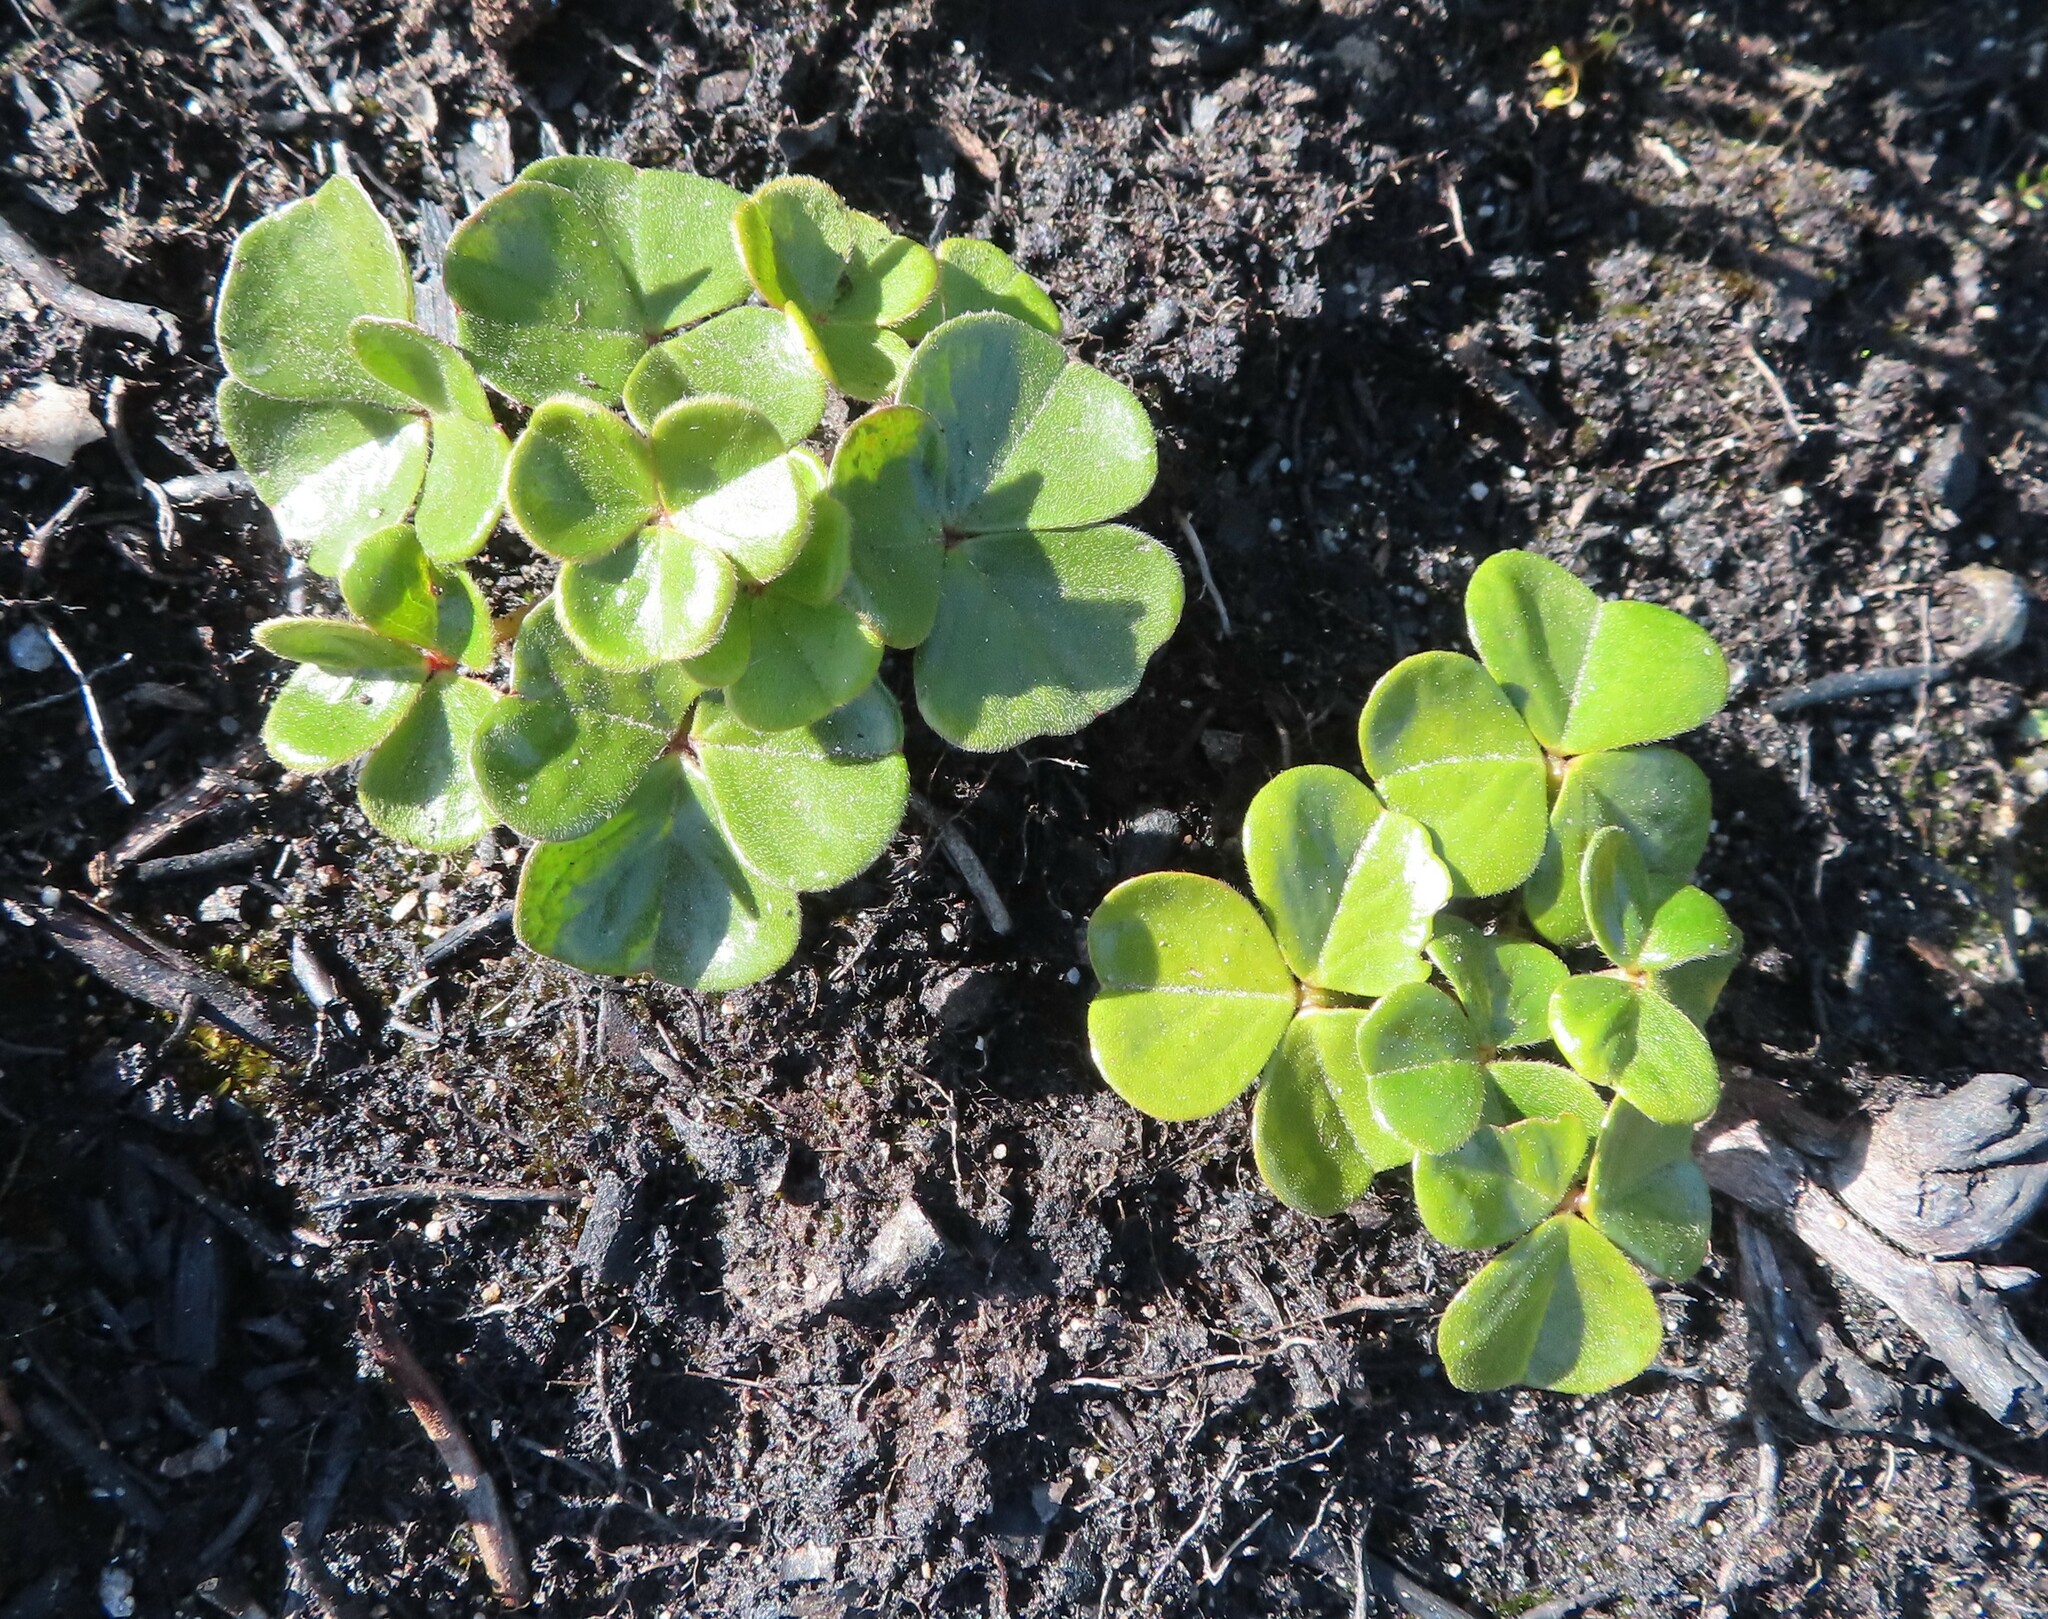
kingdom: Plantae
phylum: Tracheophyta
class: Magnoliopsida
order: Oxalidales
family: Oxalidaceae
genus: Oxalis
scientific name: Oxalis truncatula
